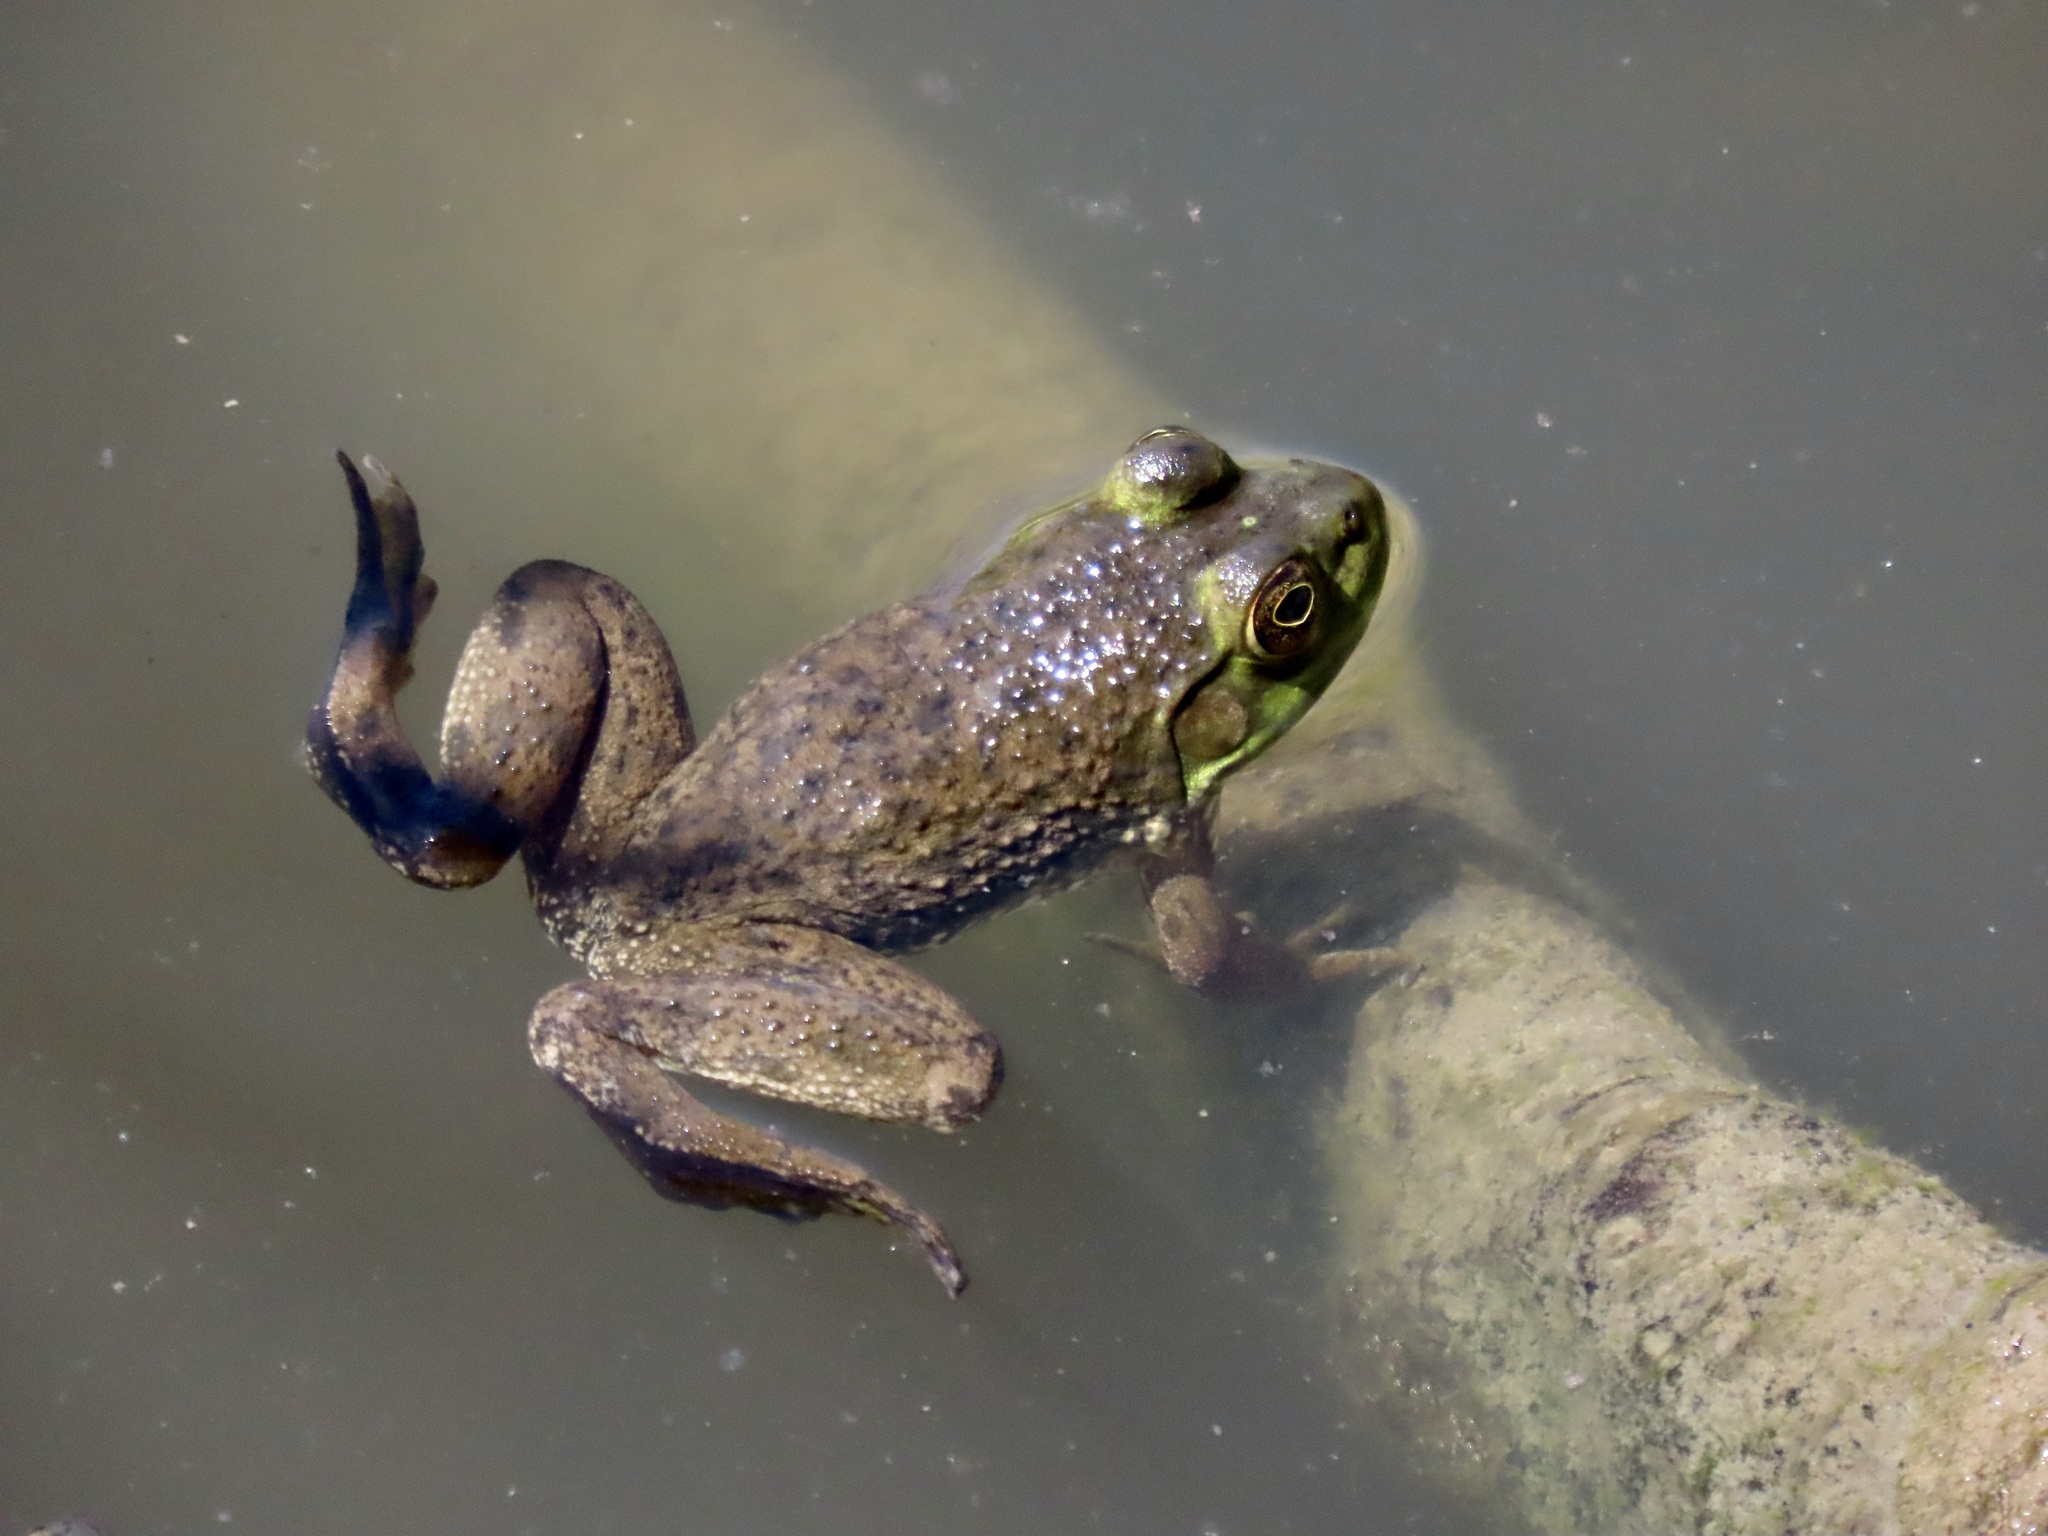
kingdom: Animalia
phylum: Chordata
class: Amphibia
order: Anura
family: Ranidae
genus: Lithobates
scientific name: Lithobates catesbeianus
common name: American bullfrog
